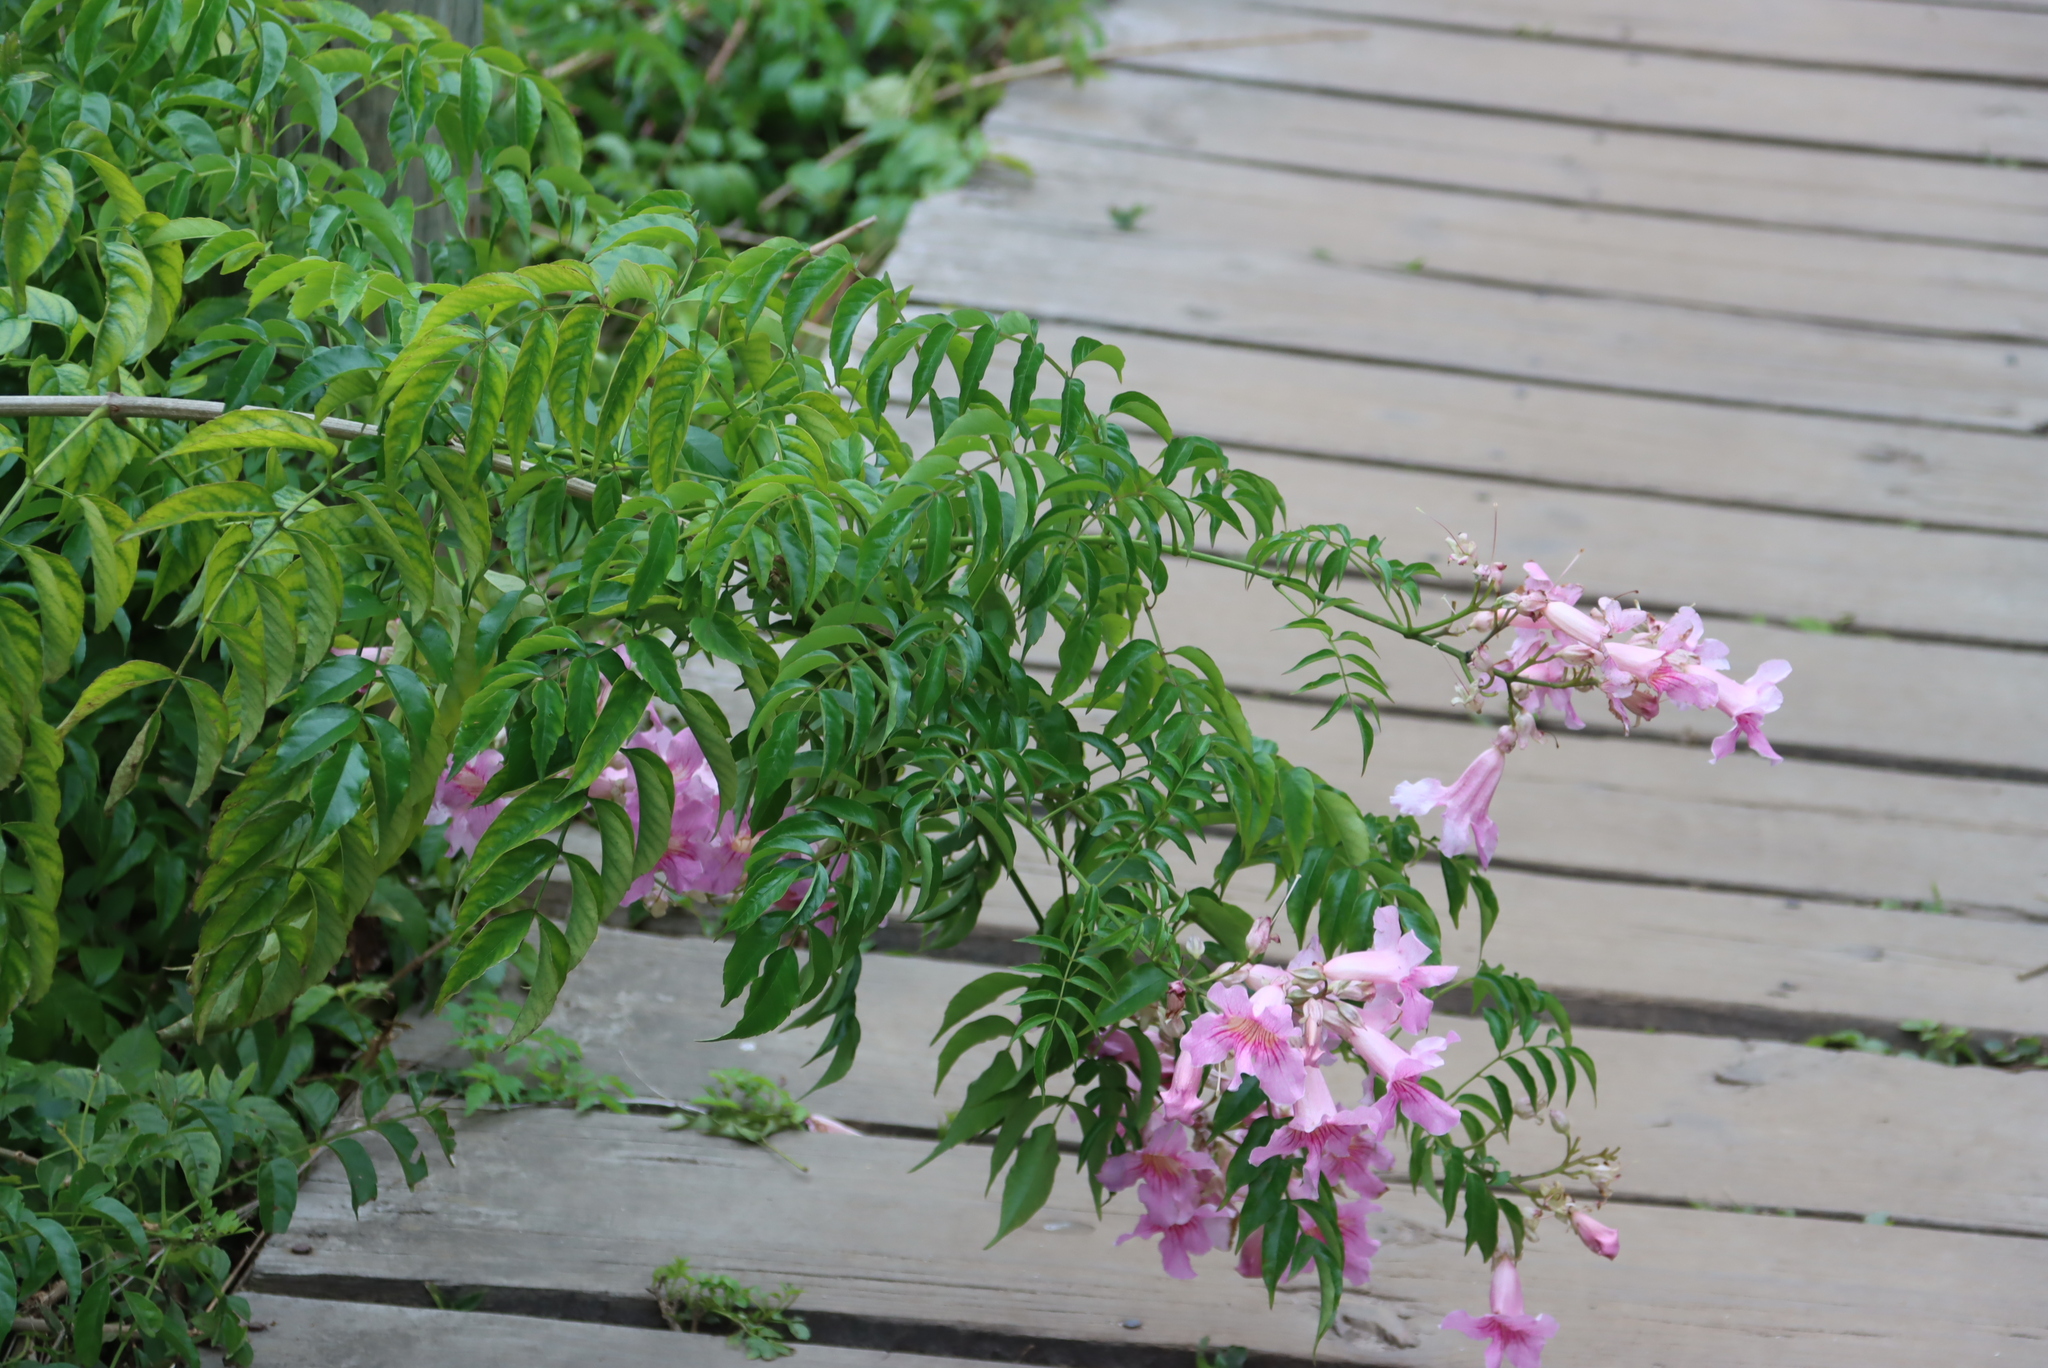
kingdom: Plantae
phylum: Tracheophyta
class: Magnoliopsida
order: Lamiales
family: Bignoniaceae
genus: Podranea
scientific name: Podranea ricasoliana
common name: Zimbabwe creeper
